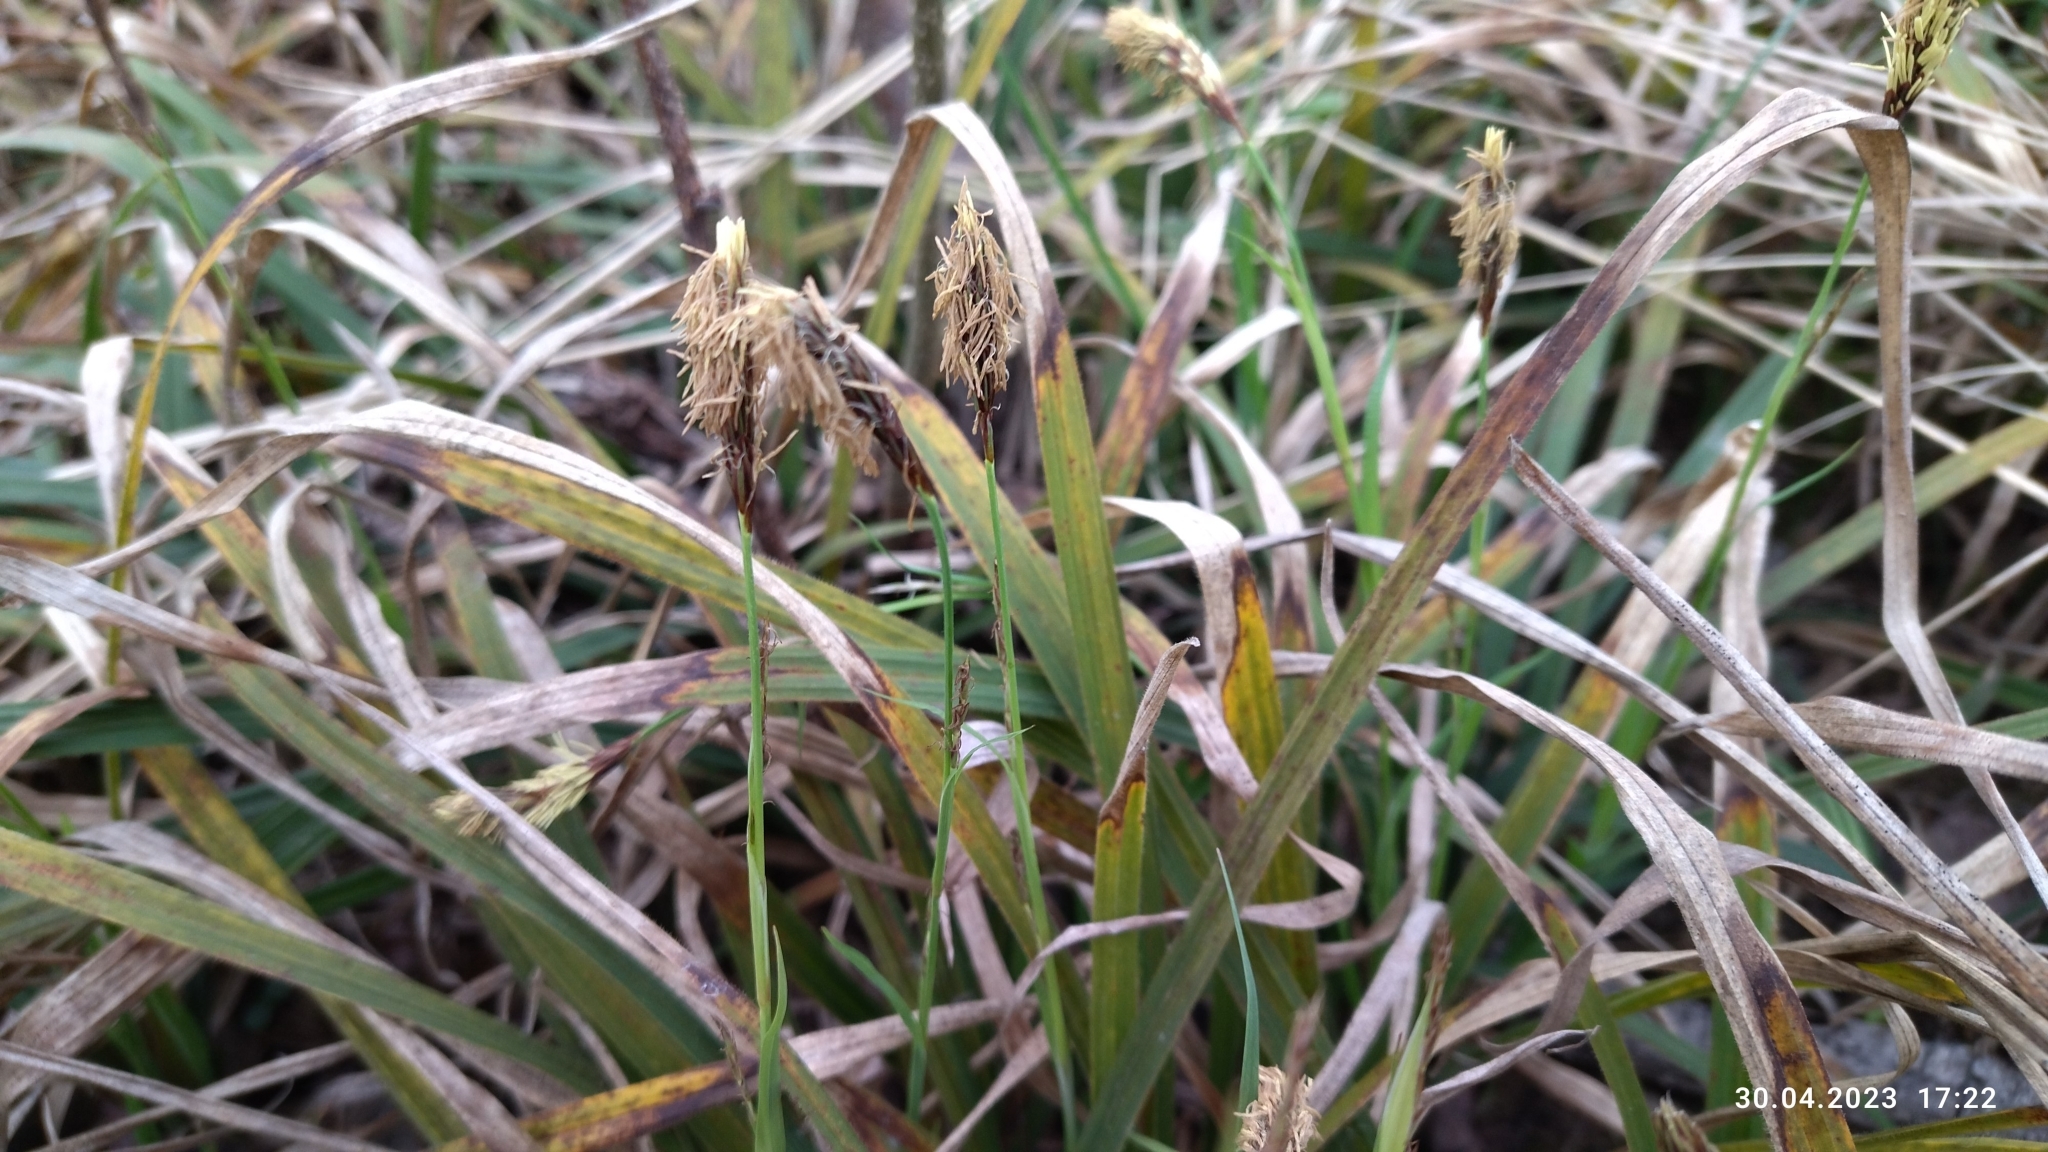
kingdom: Plantae
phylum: Tracheophyta
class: Liliopsida
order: Poales
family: Cyperaceae
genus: Carex
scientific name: Carex pilosa
